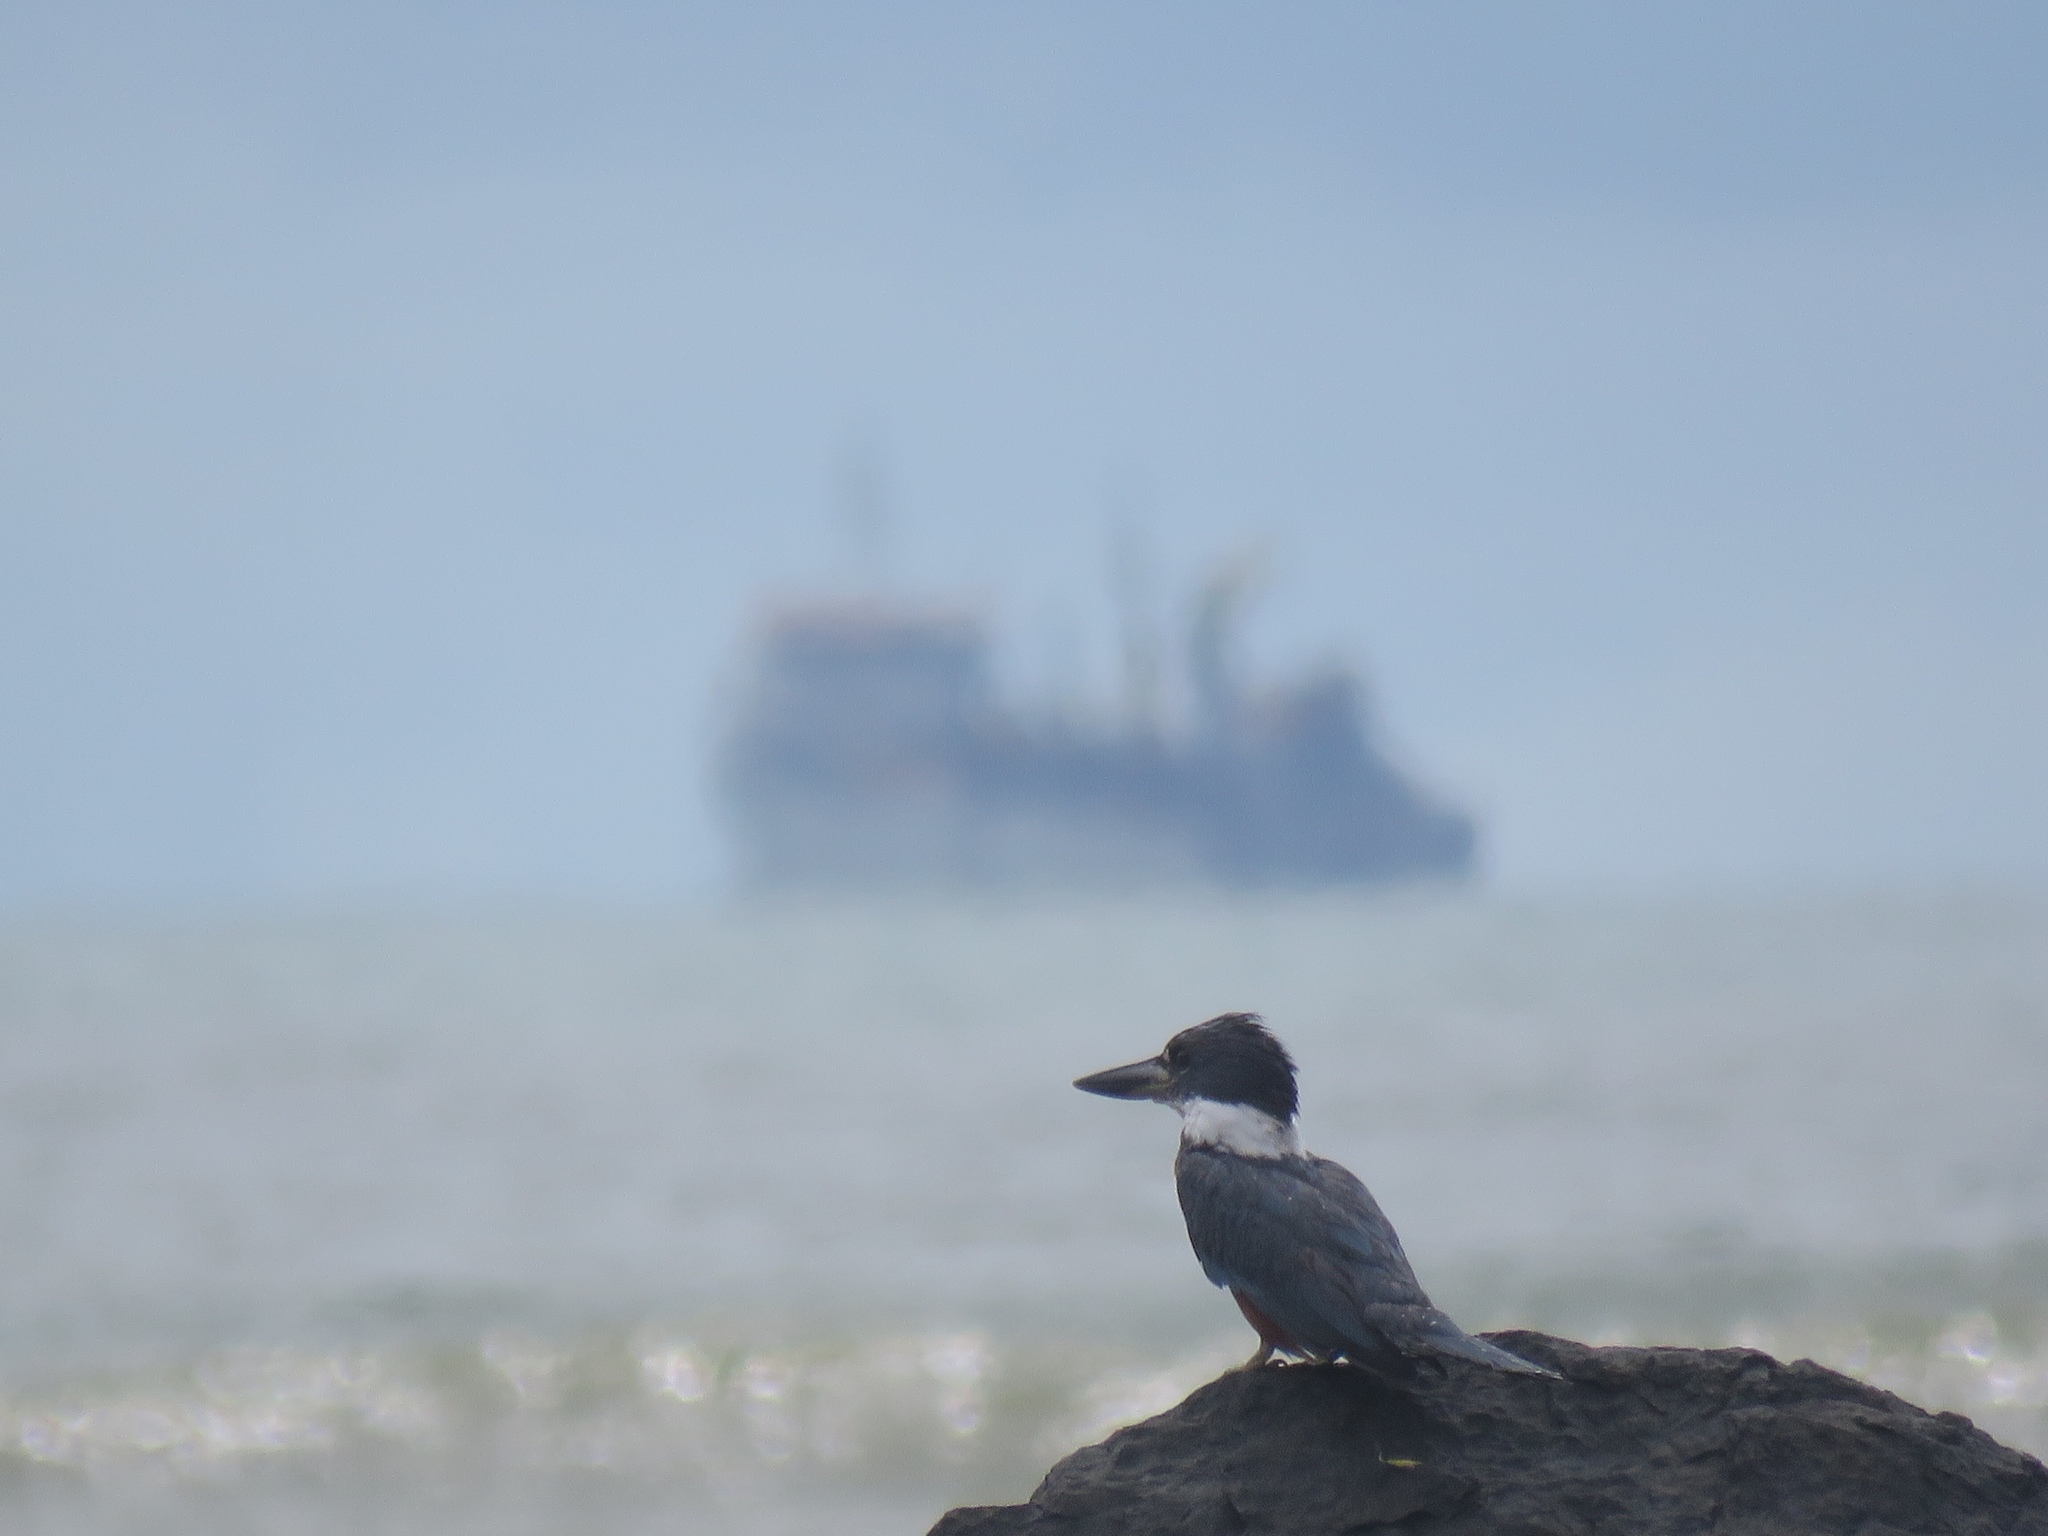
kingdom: Animalia
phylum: Chordata
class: Aves
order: Coraciiformes
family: Alcedinidae
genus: Megaceryle
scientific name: Megaceryle torquata
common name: Ringed kingfisher
